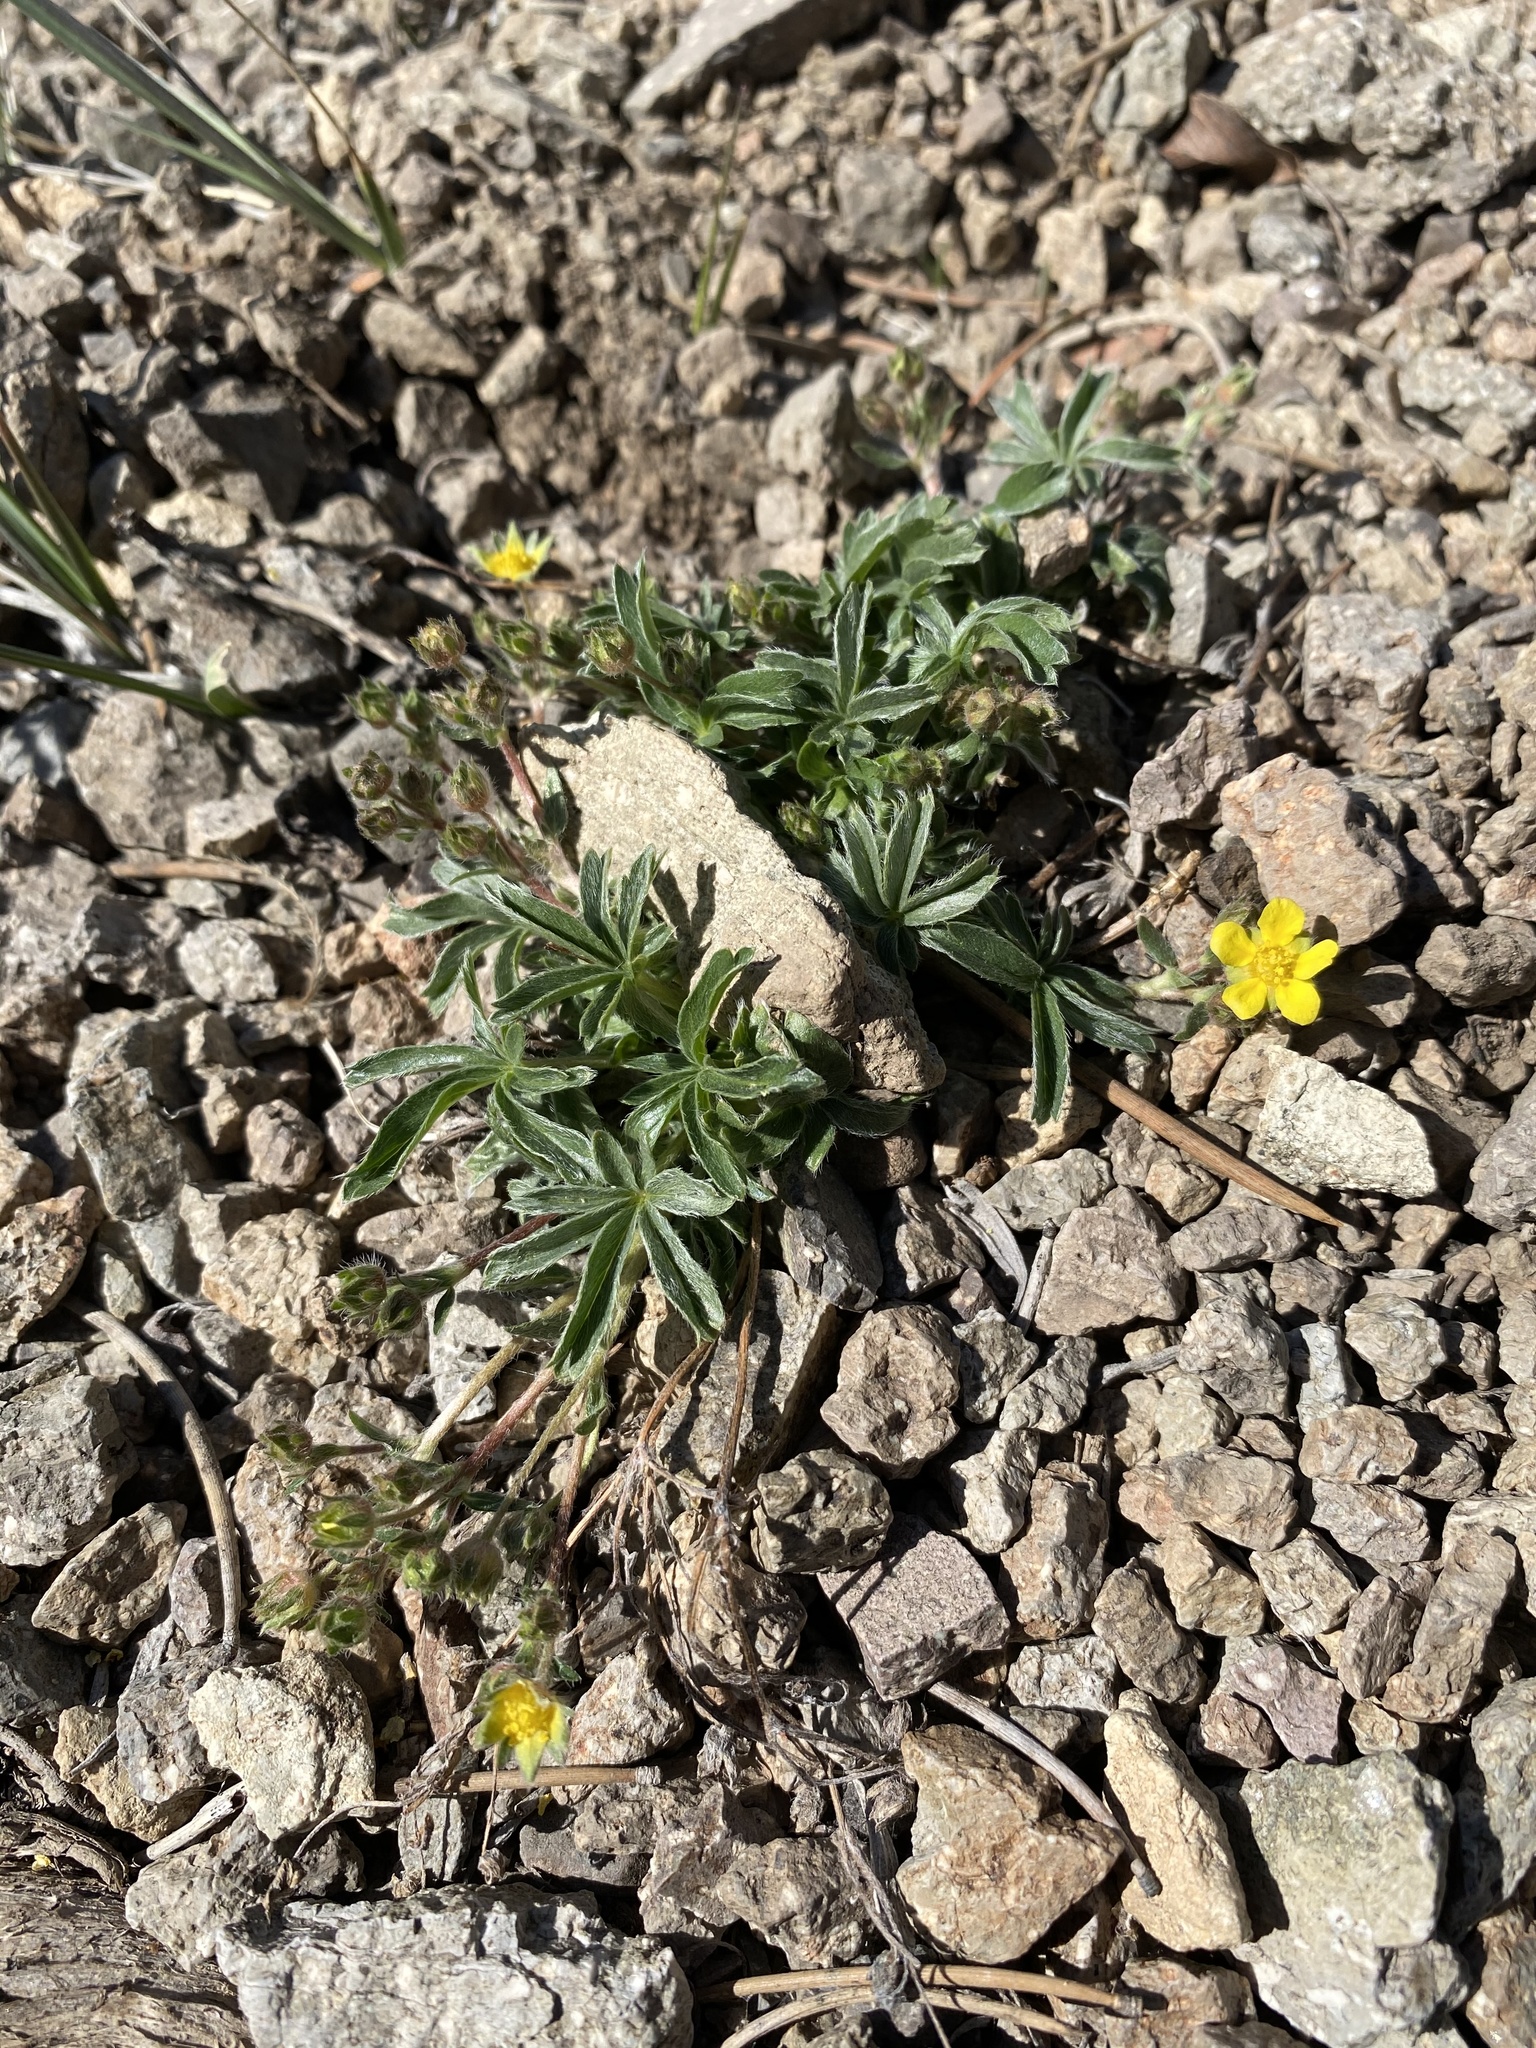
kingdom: Plantae
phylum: Tracheophyta
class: Magnoliopsida
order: Rosales
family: Rosaceae
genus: Potentilla
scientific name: Potentilla johnstonii
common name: Sagebrush cinquefoil
